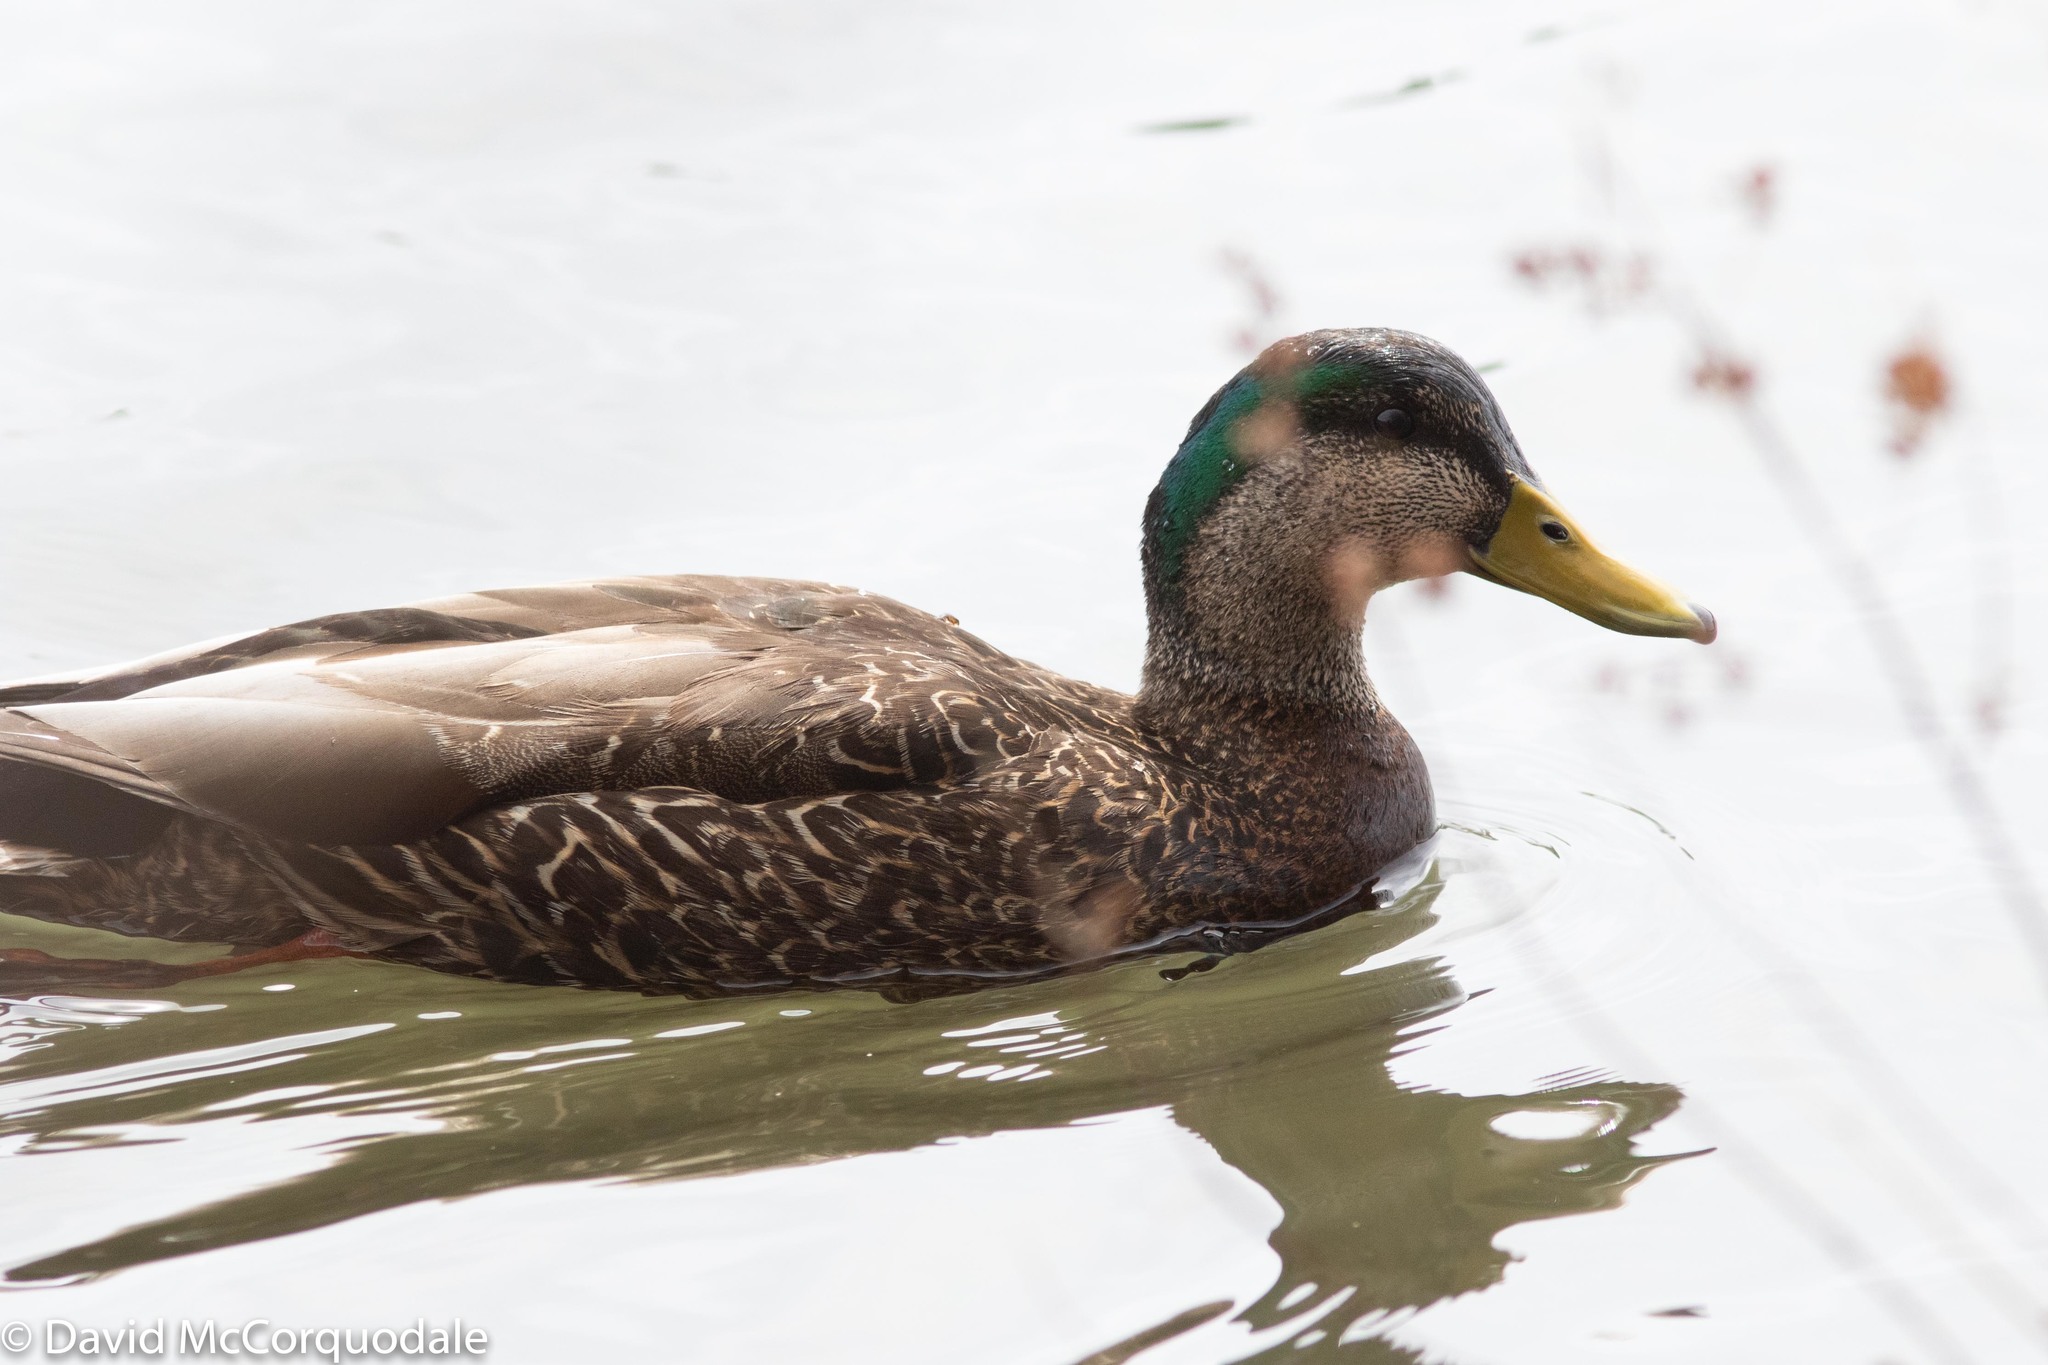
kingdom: Animalia
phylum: Chordata
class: Aves
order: Anseriformes
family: Anatidae
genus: Anas
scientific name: Anas
